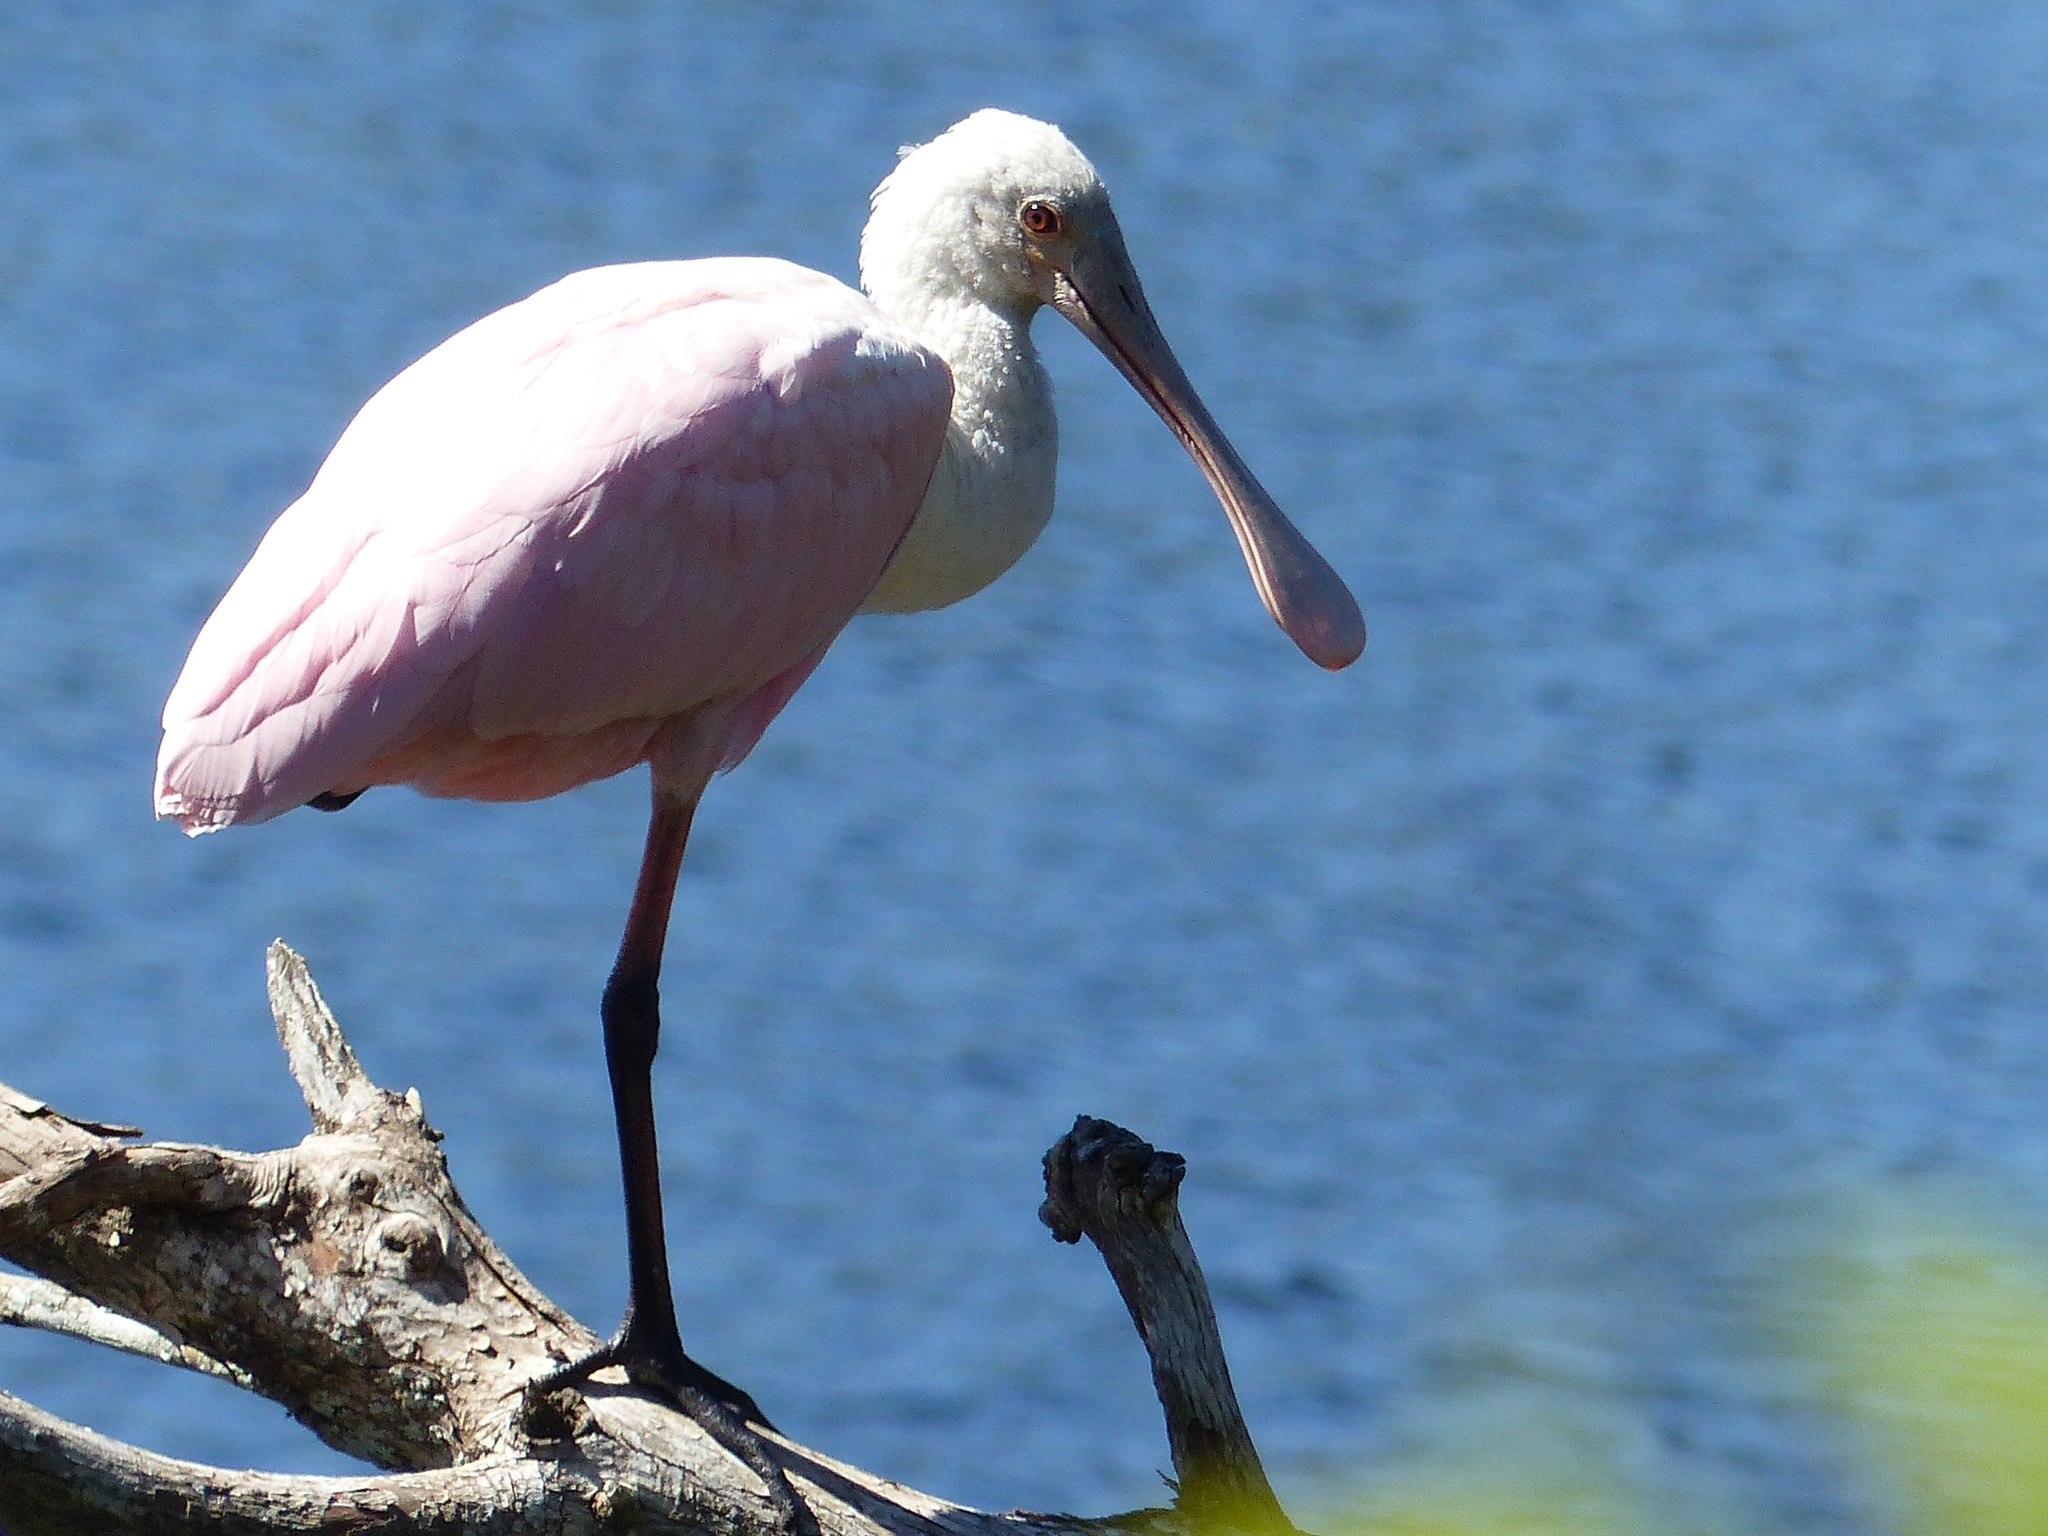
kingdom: Animalia
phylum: Chordata
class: Aves
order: Pelecaniformes
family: Threskiornithidae
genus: Platalea
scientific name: Platalea ajaja
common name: Roseate spoonbill
